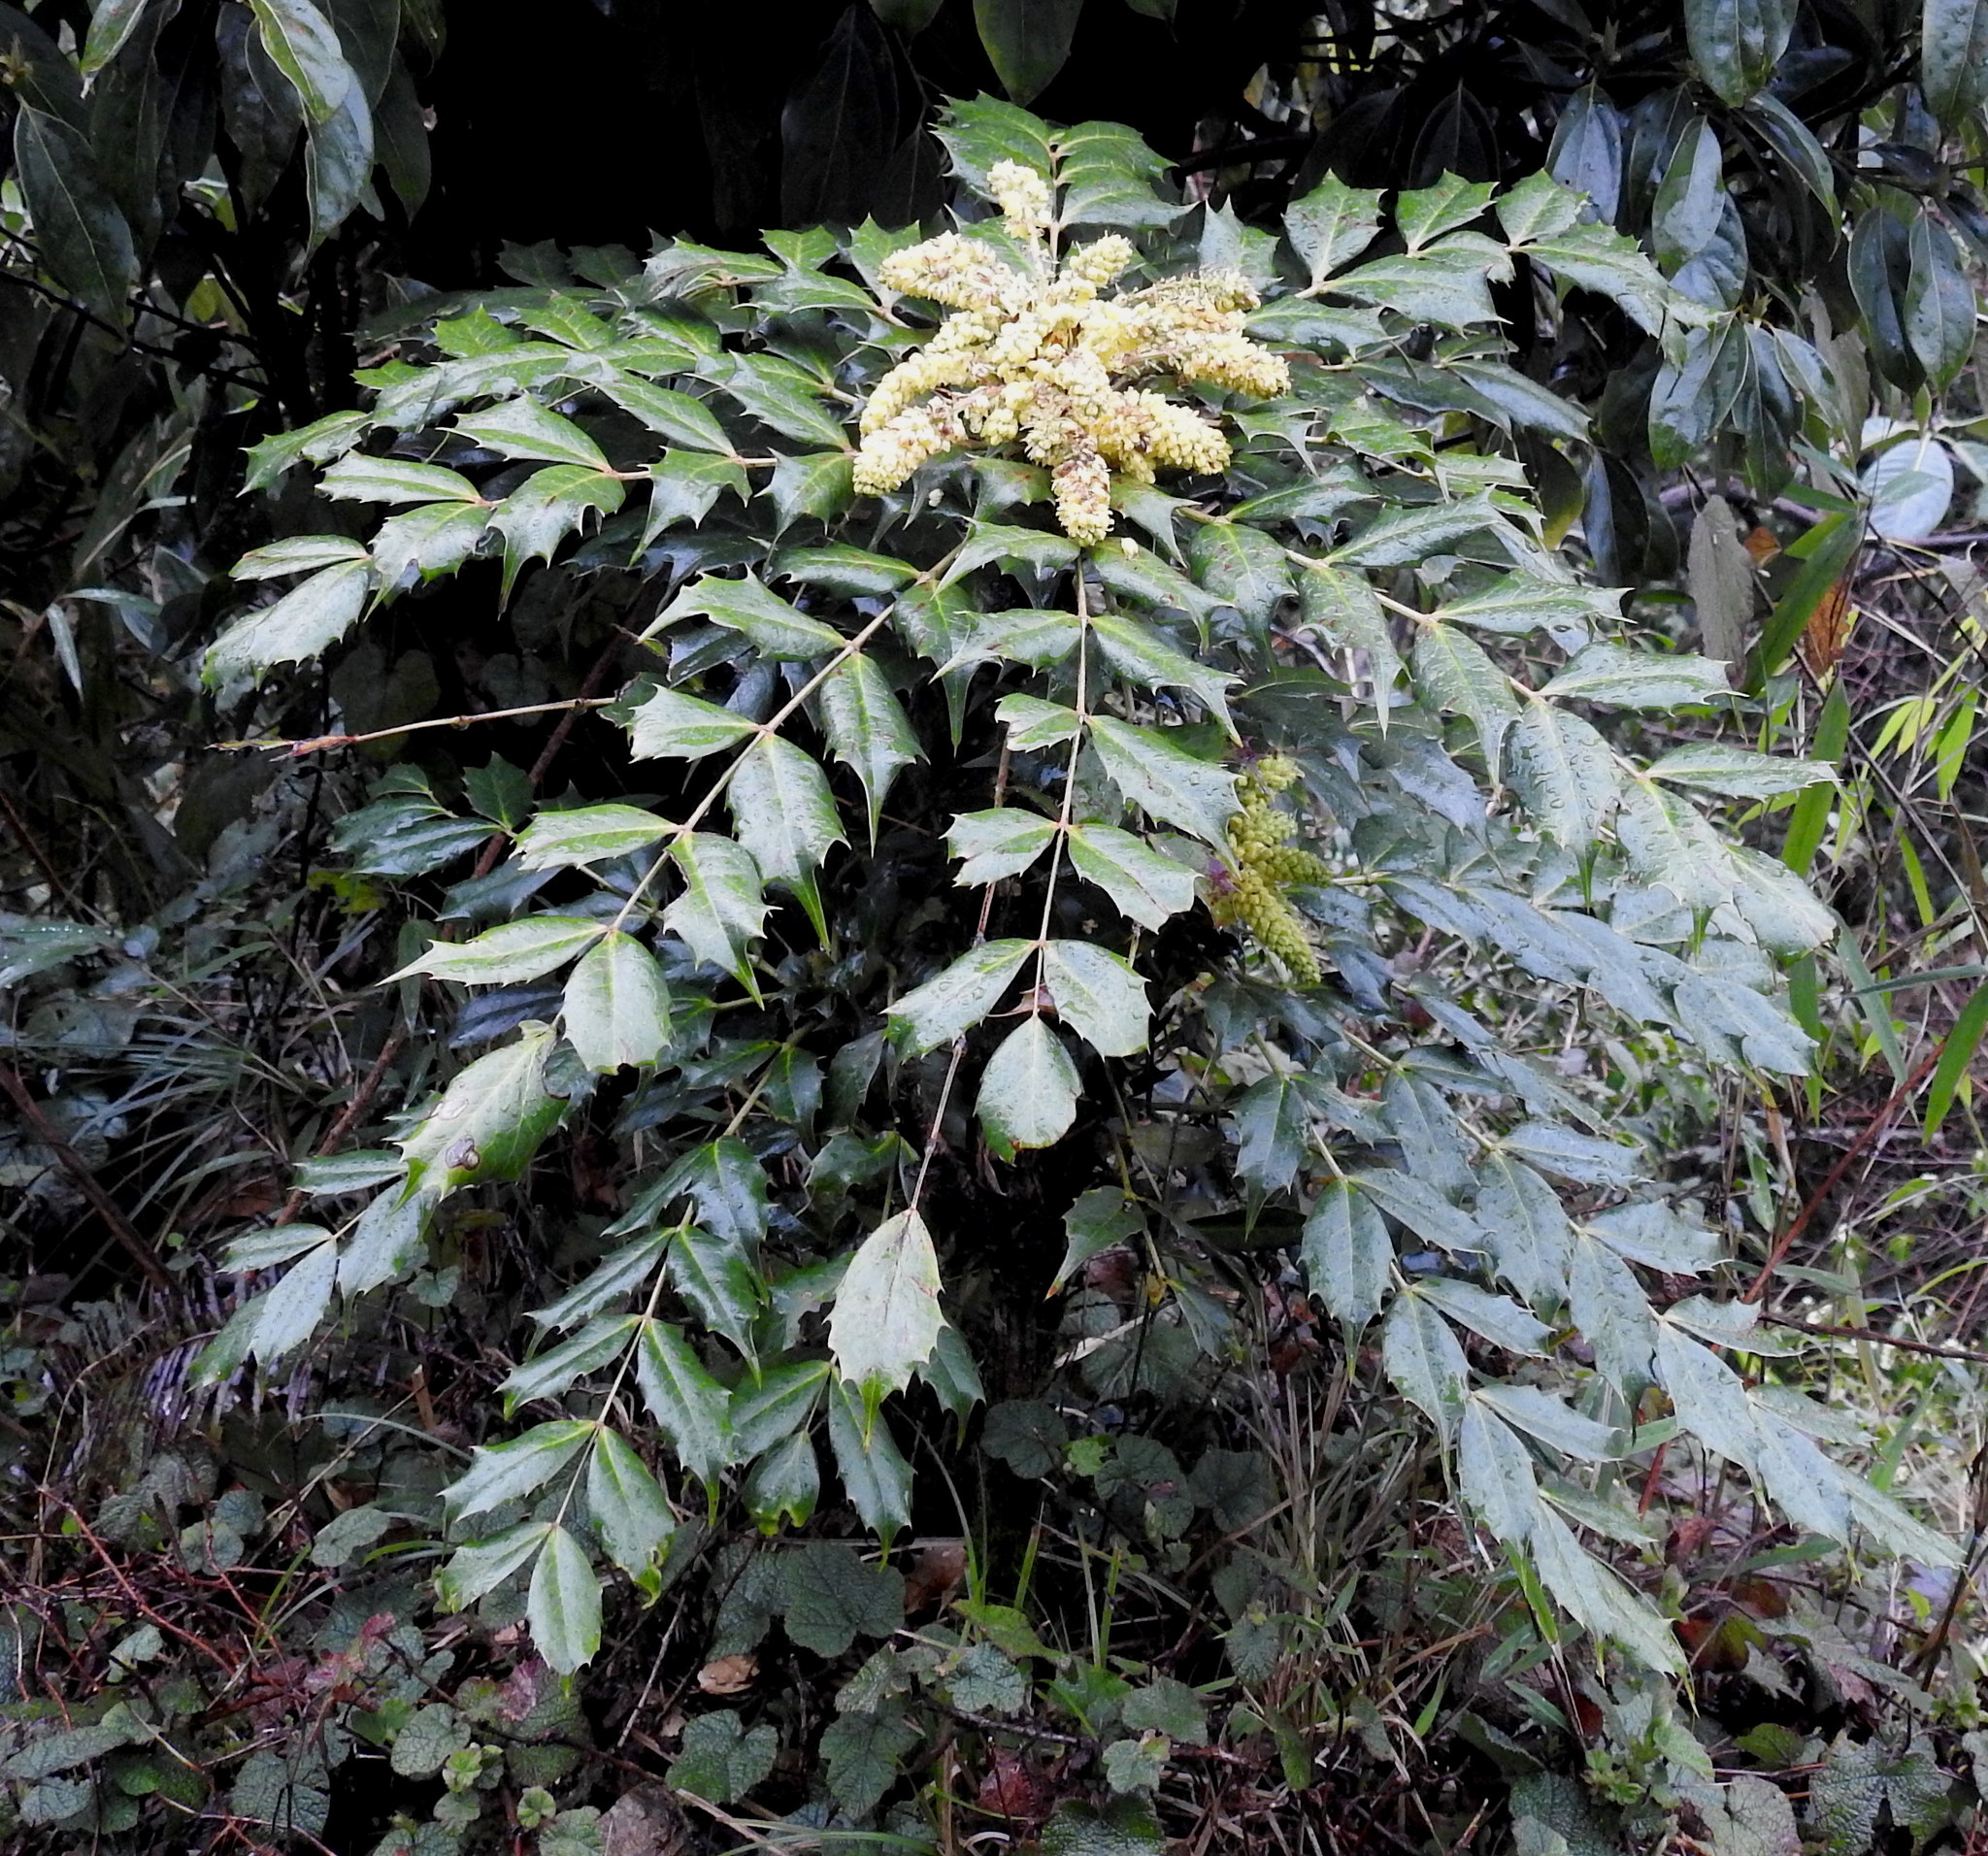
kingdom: Plantae
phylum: Tracheophyta
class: Magnoliopsida
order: Ranunculales
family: Berberidaceae
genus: Mahonia
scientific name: Mahonia napaulensis
